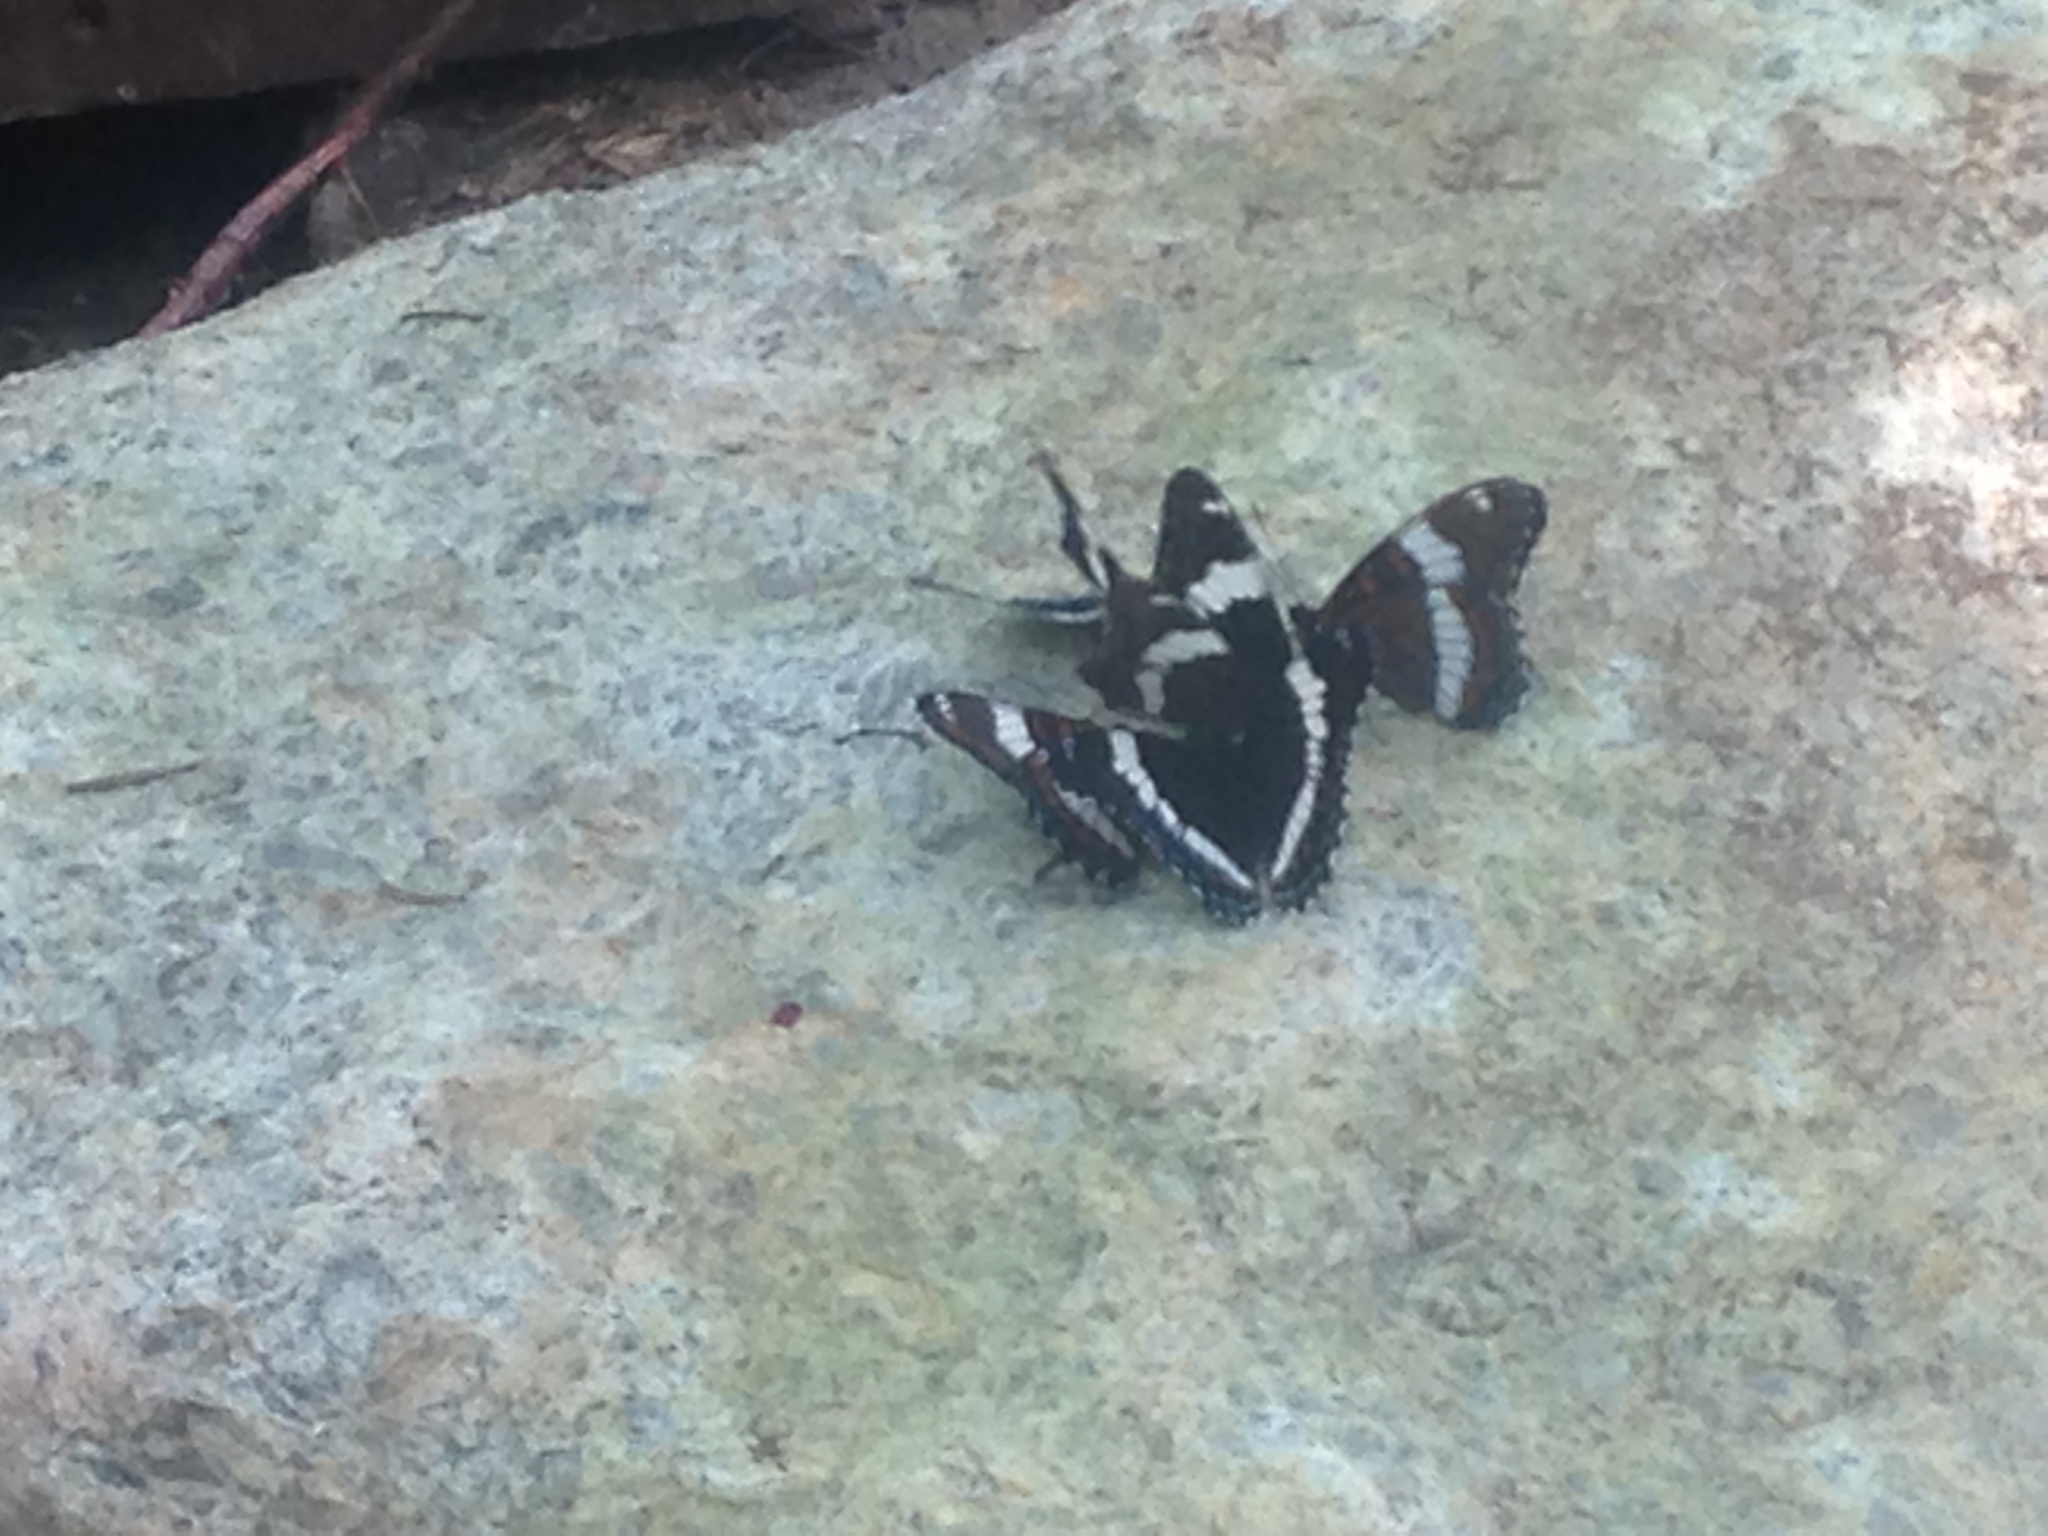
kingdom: Animalia
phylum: Arthropoda
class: Insecta
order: Lepidoptera
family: Nymphalidae
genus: Limenitis
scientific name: Limenitis arthemis
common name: Red-spotted admiral
